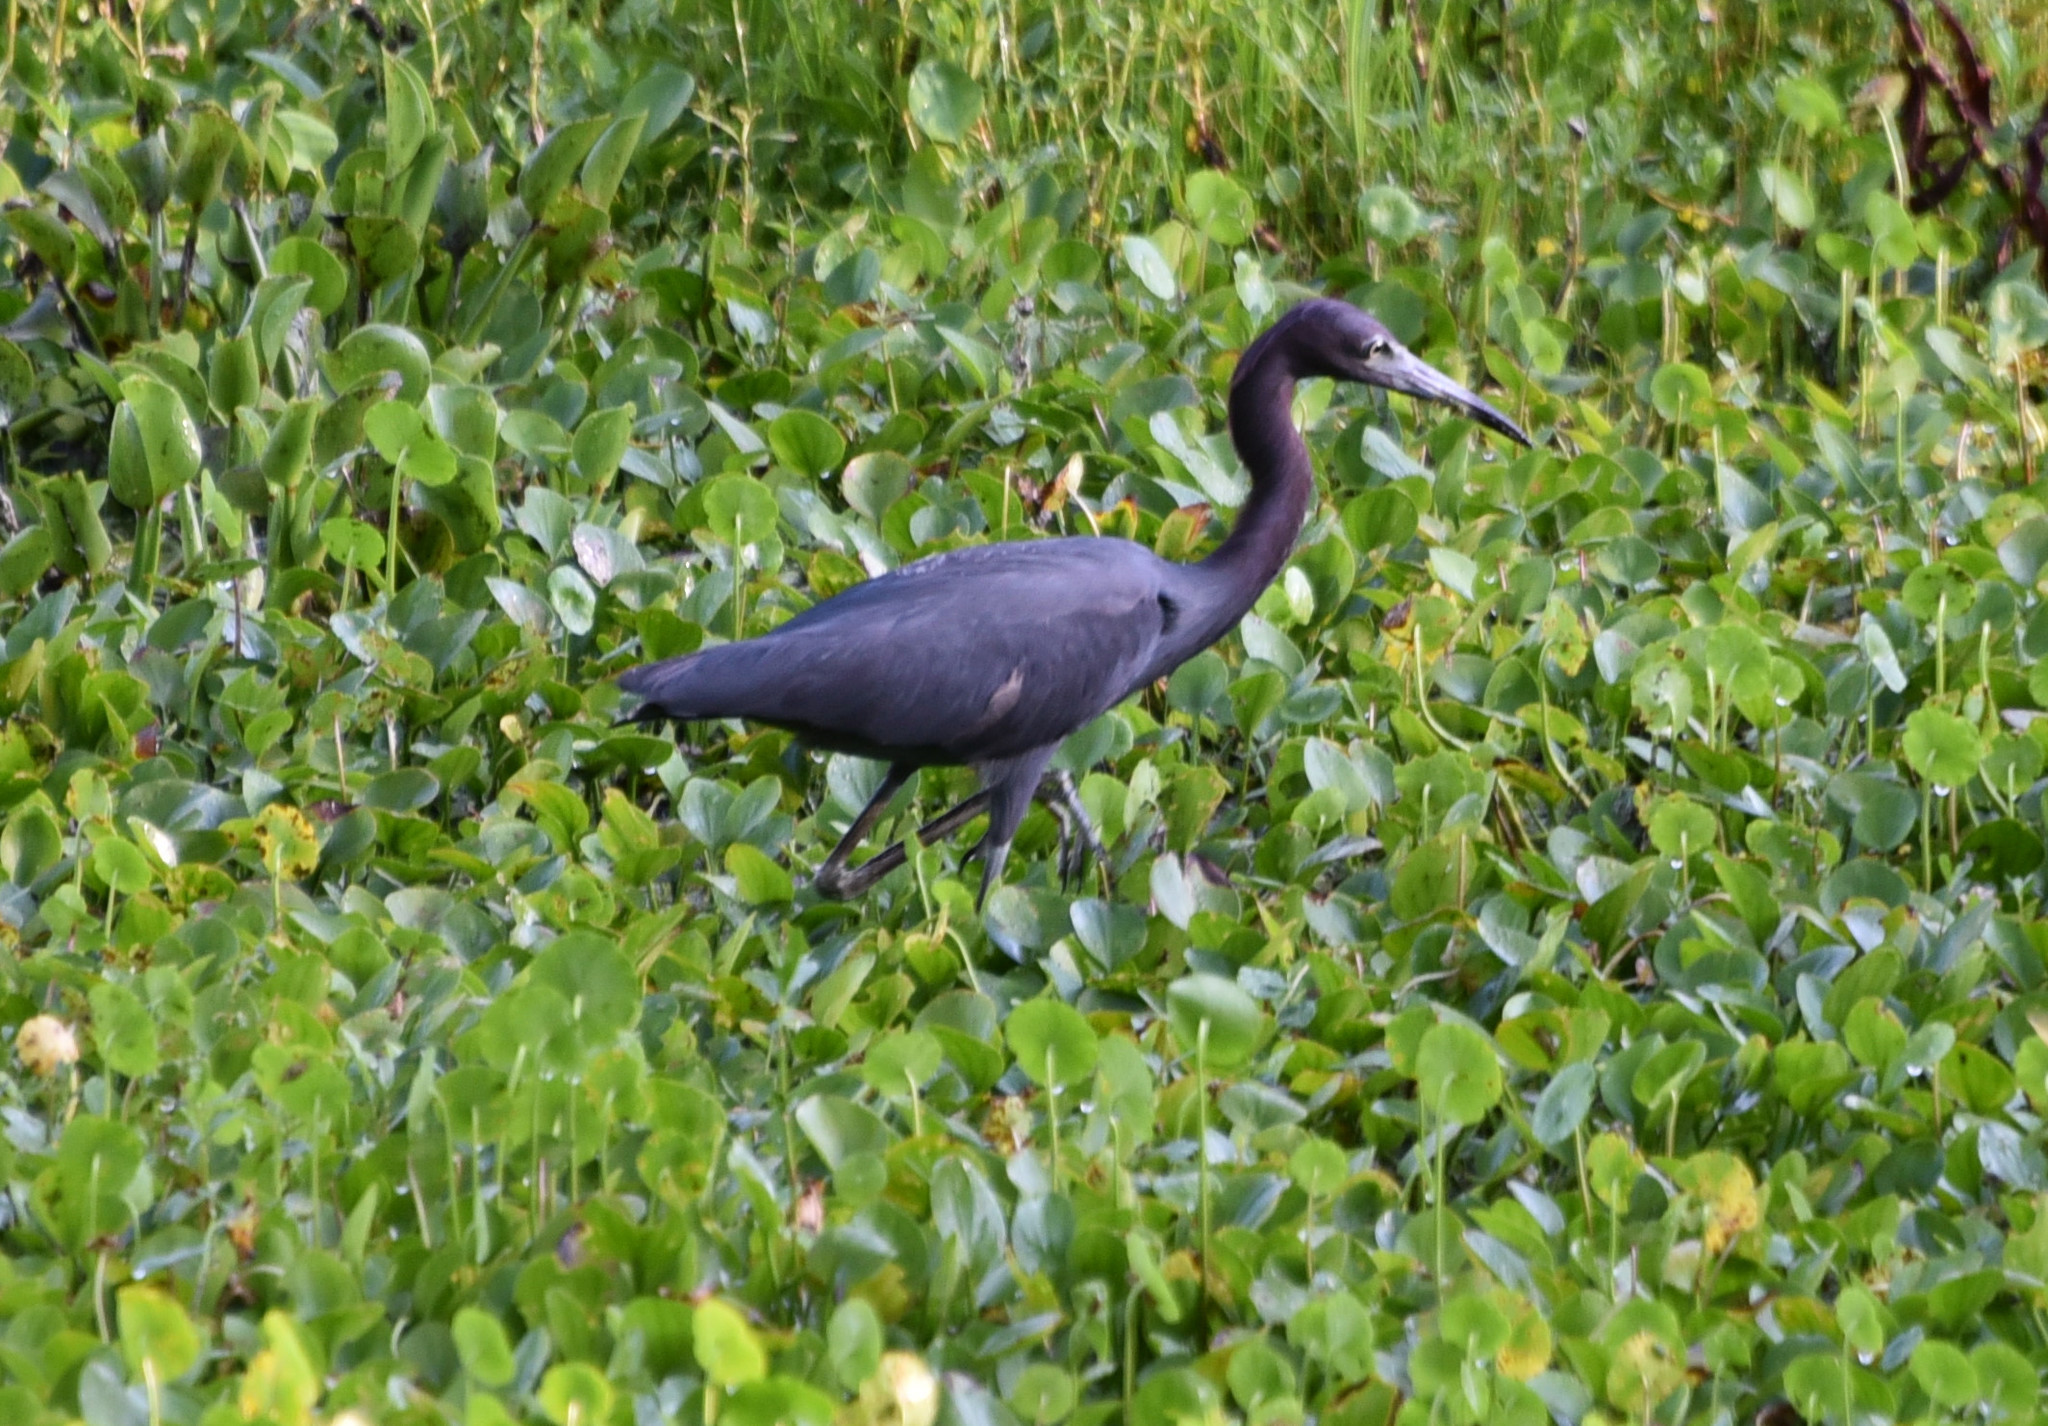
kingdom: Animalia
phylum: Chordata
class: Aves
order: Pelecaniformes
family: Ardeidae
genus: Egretta
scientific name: Egretta caerulea
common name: Little blue heron
